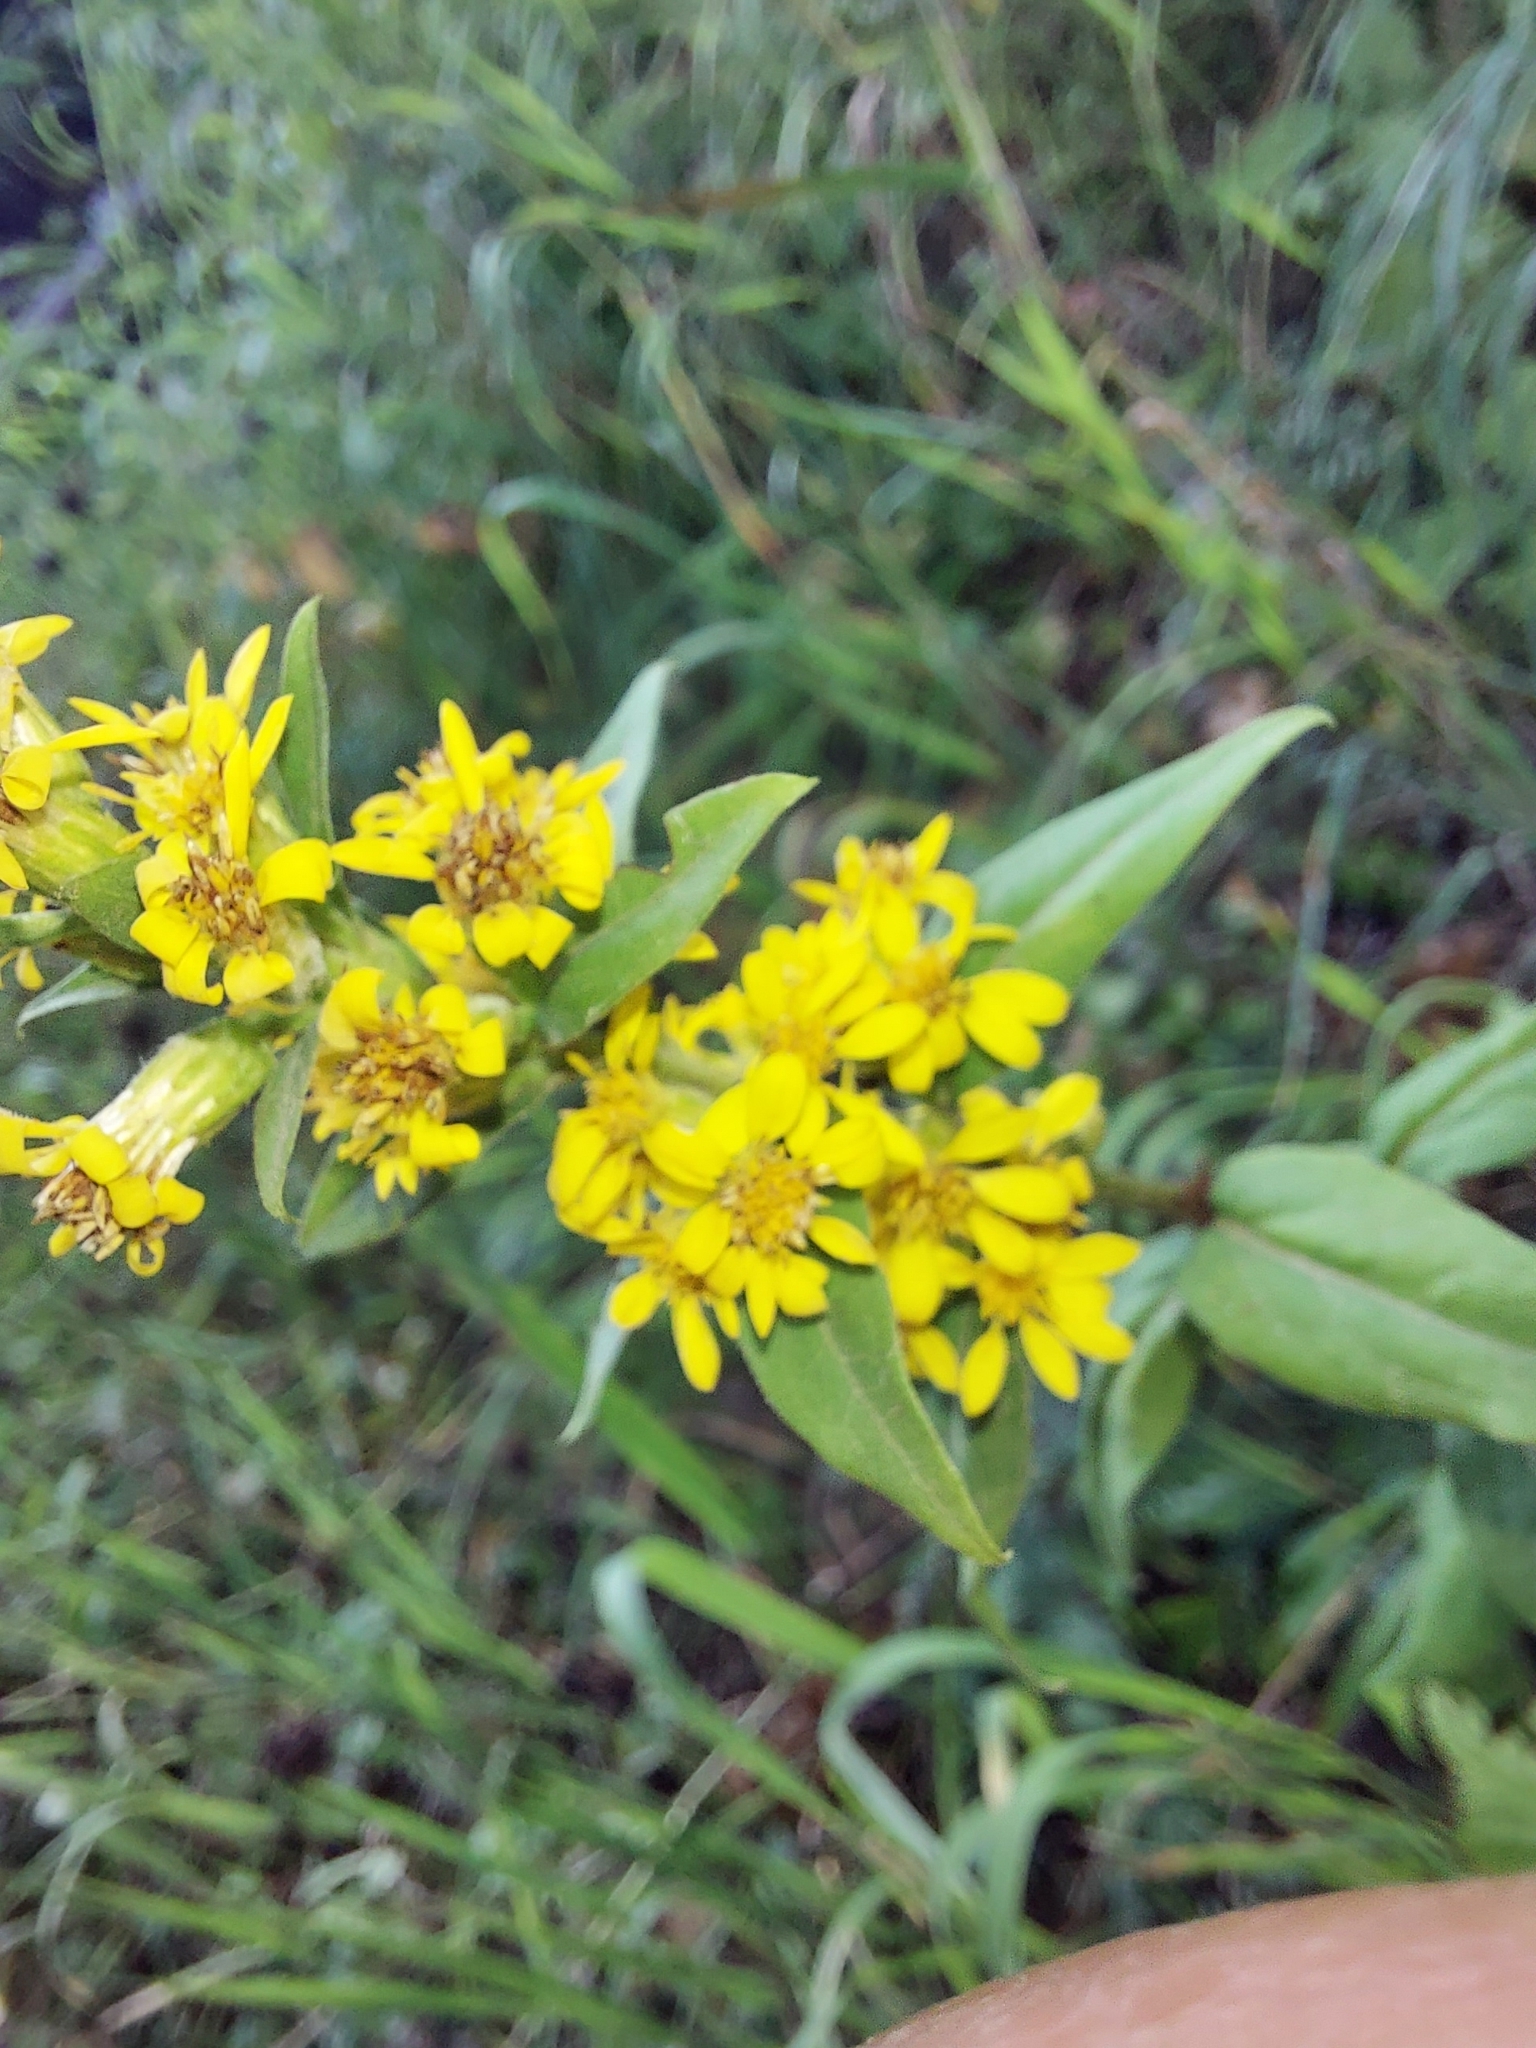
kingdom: Plantae
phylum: Tracheophyta
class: Magnoliopsida
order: Asterales
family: Asteraceae
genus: Solidago
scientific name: Solidago virgaurea
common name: Goldenrod
